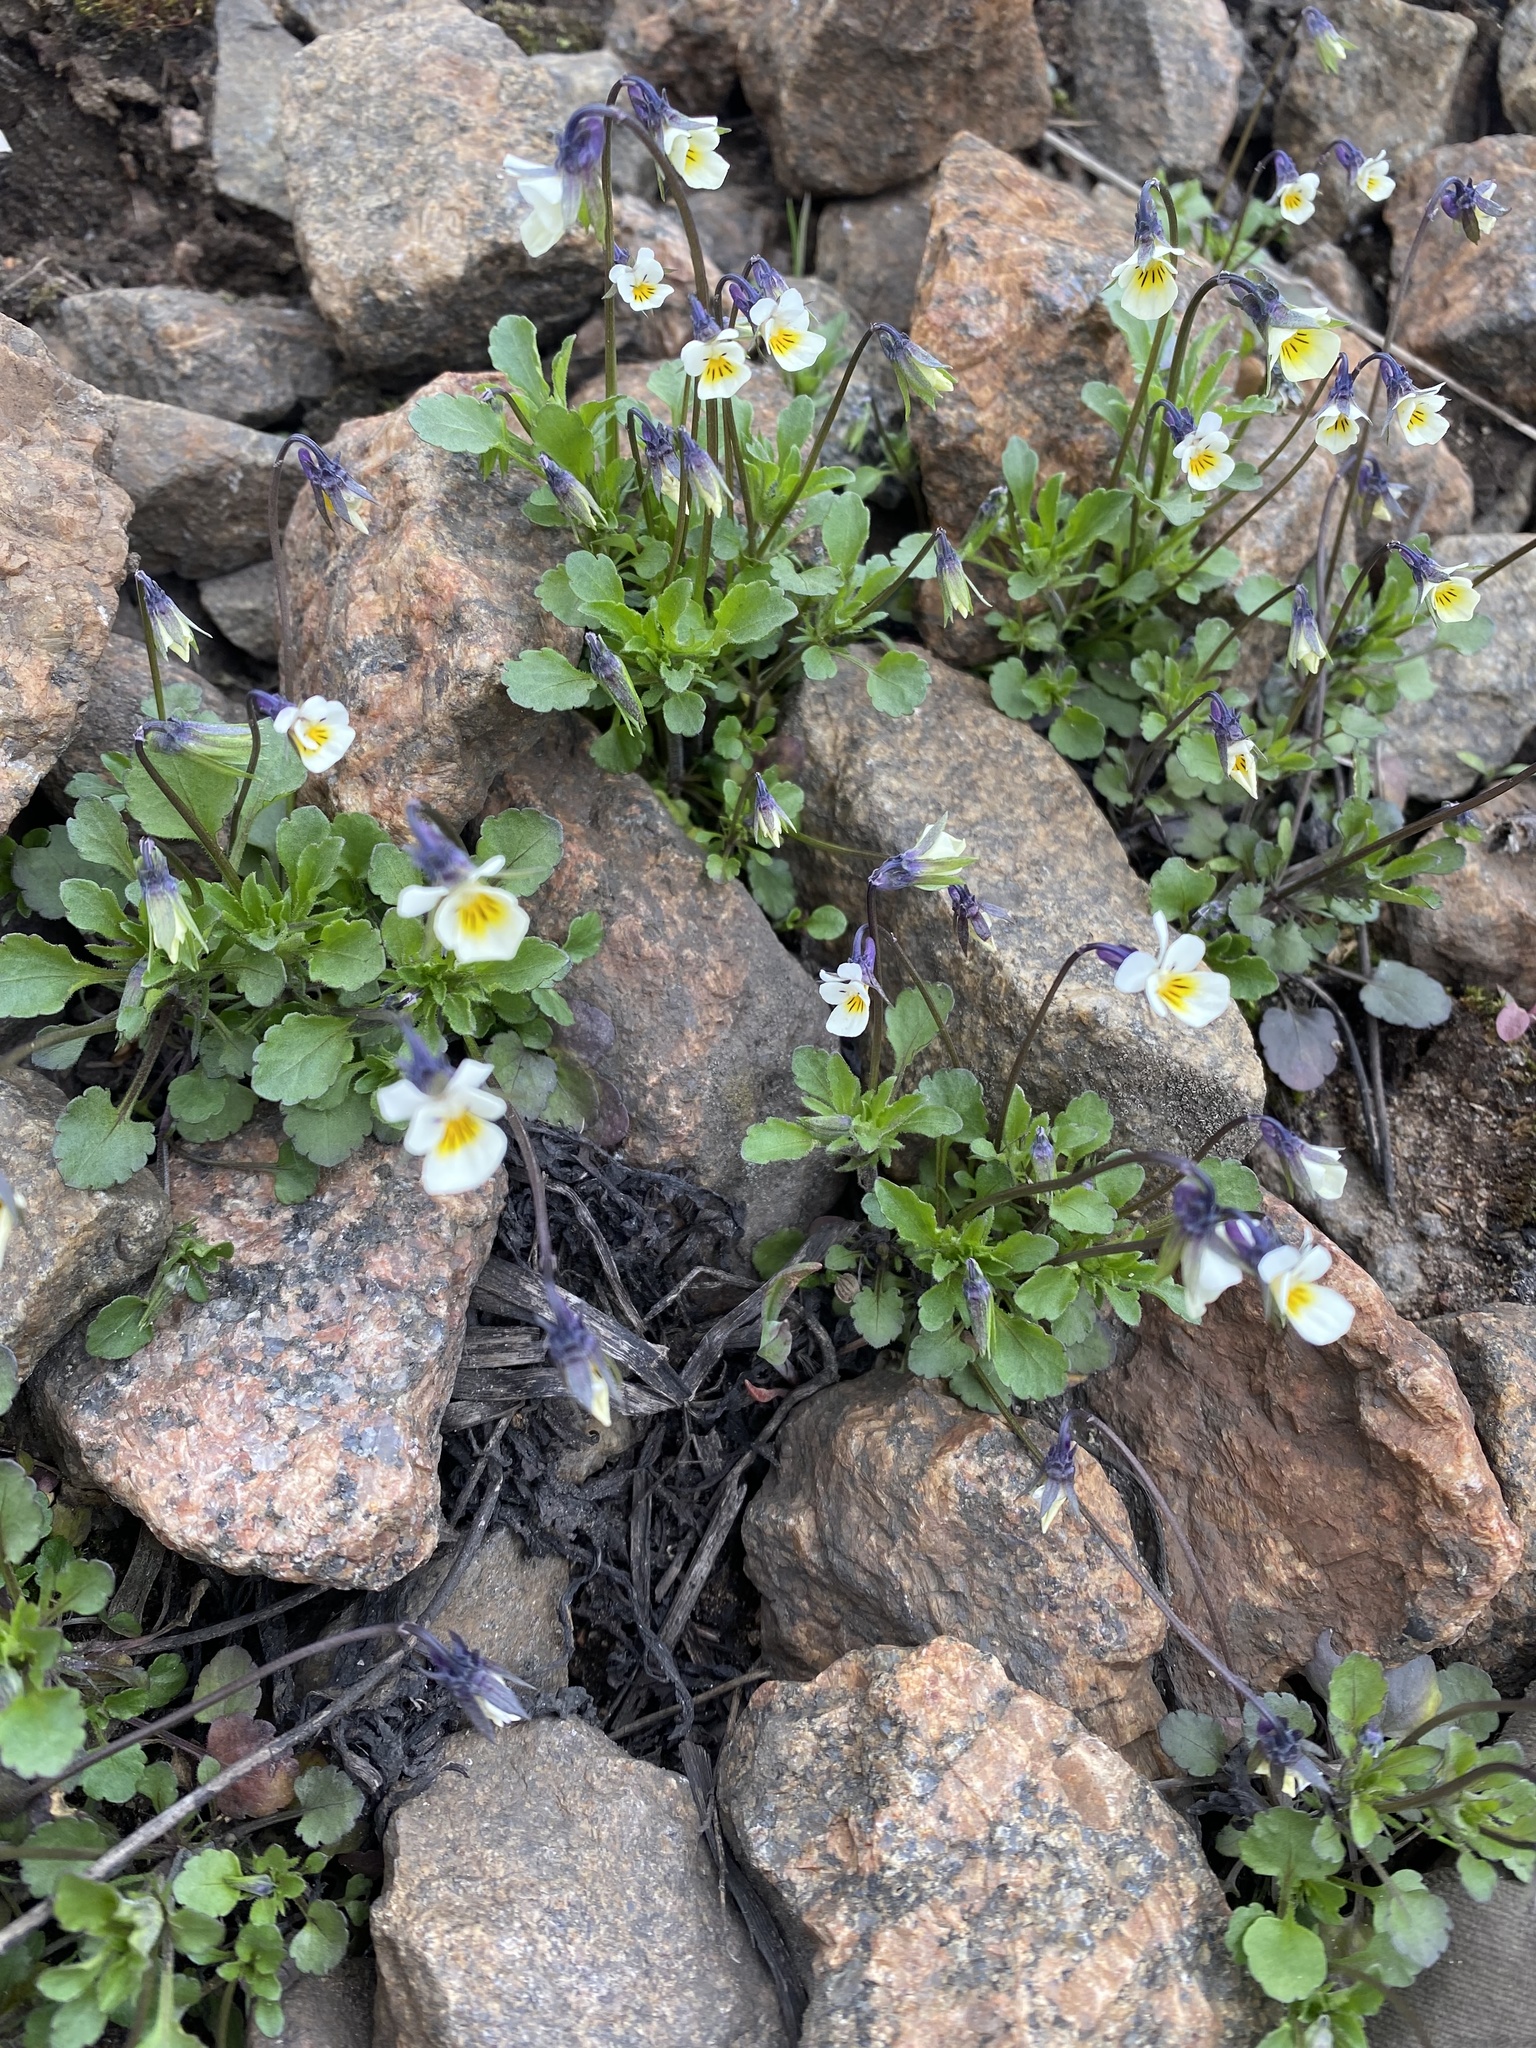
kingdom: Plantae
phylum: Tracheophyta
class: Magnoliopsida
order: Malpighiales
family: Violaceae
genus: Viola
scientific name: Viola arvensis
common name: Field pansy
